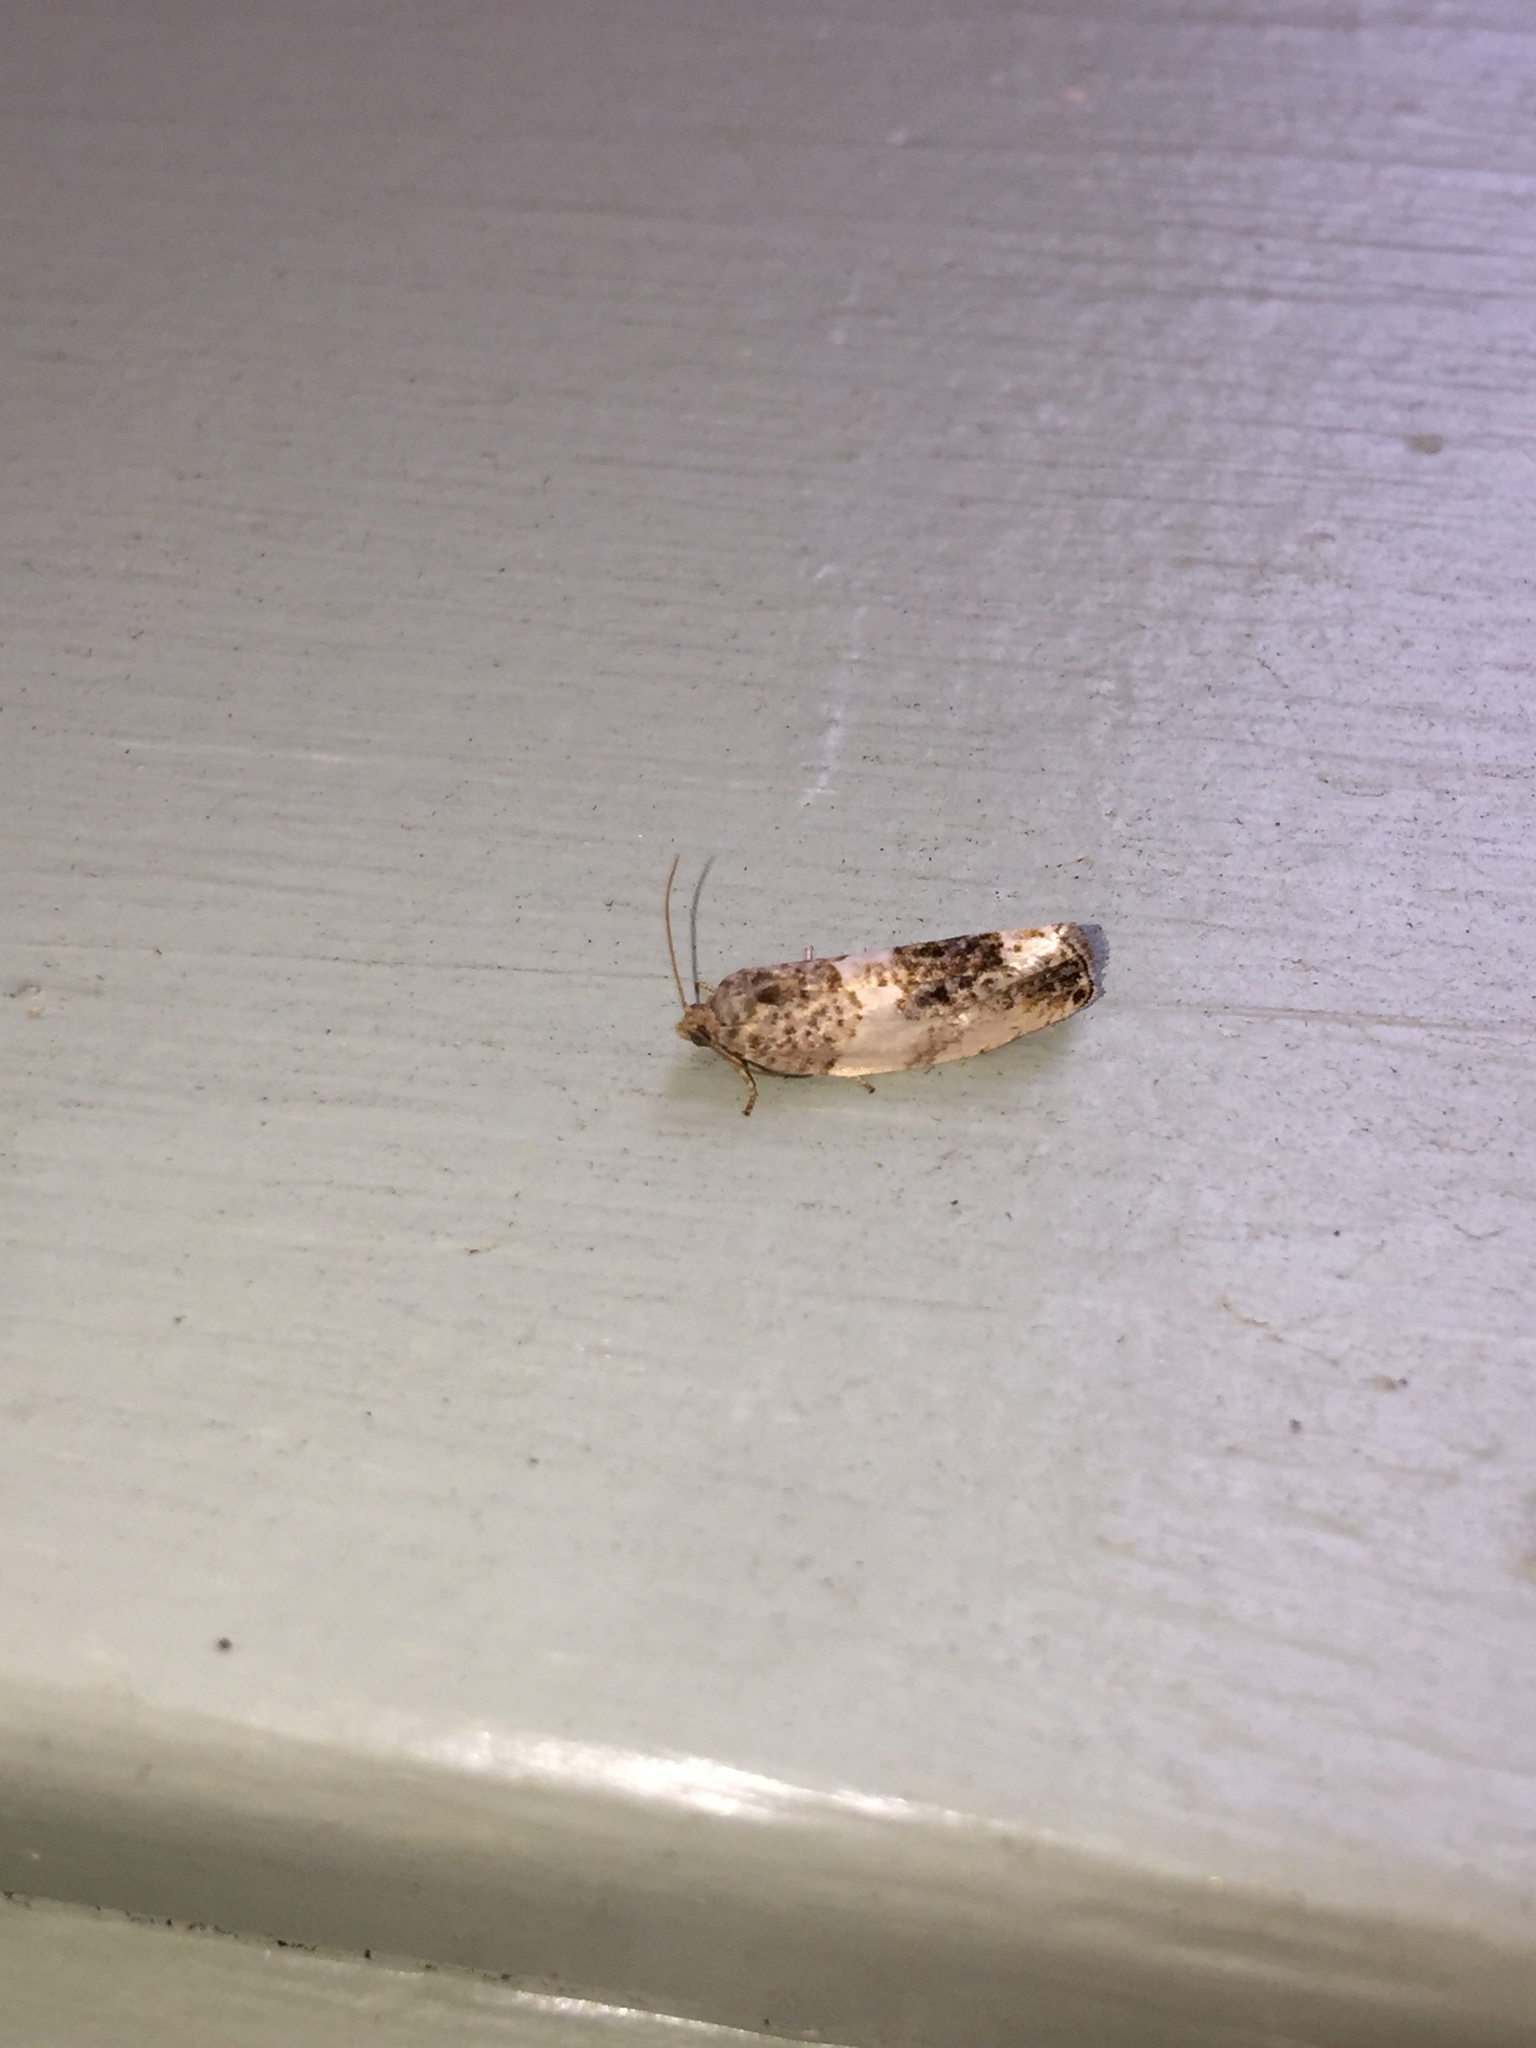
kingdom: Animalia
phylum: Arthropoda
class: Insecta
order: Lepidoptera
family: Tortricidae
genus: Pseudosciaphila
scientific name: Pseudosciaphila duplex
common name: Poplar leafroller moth
